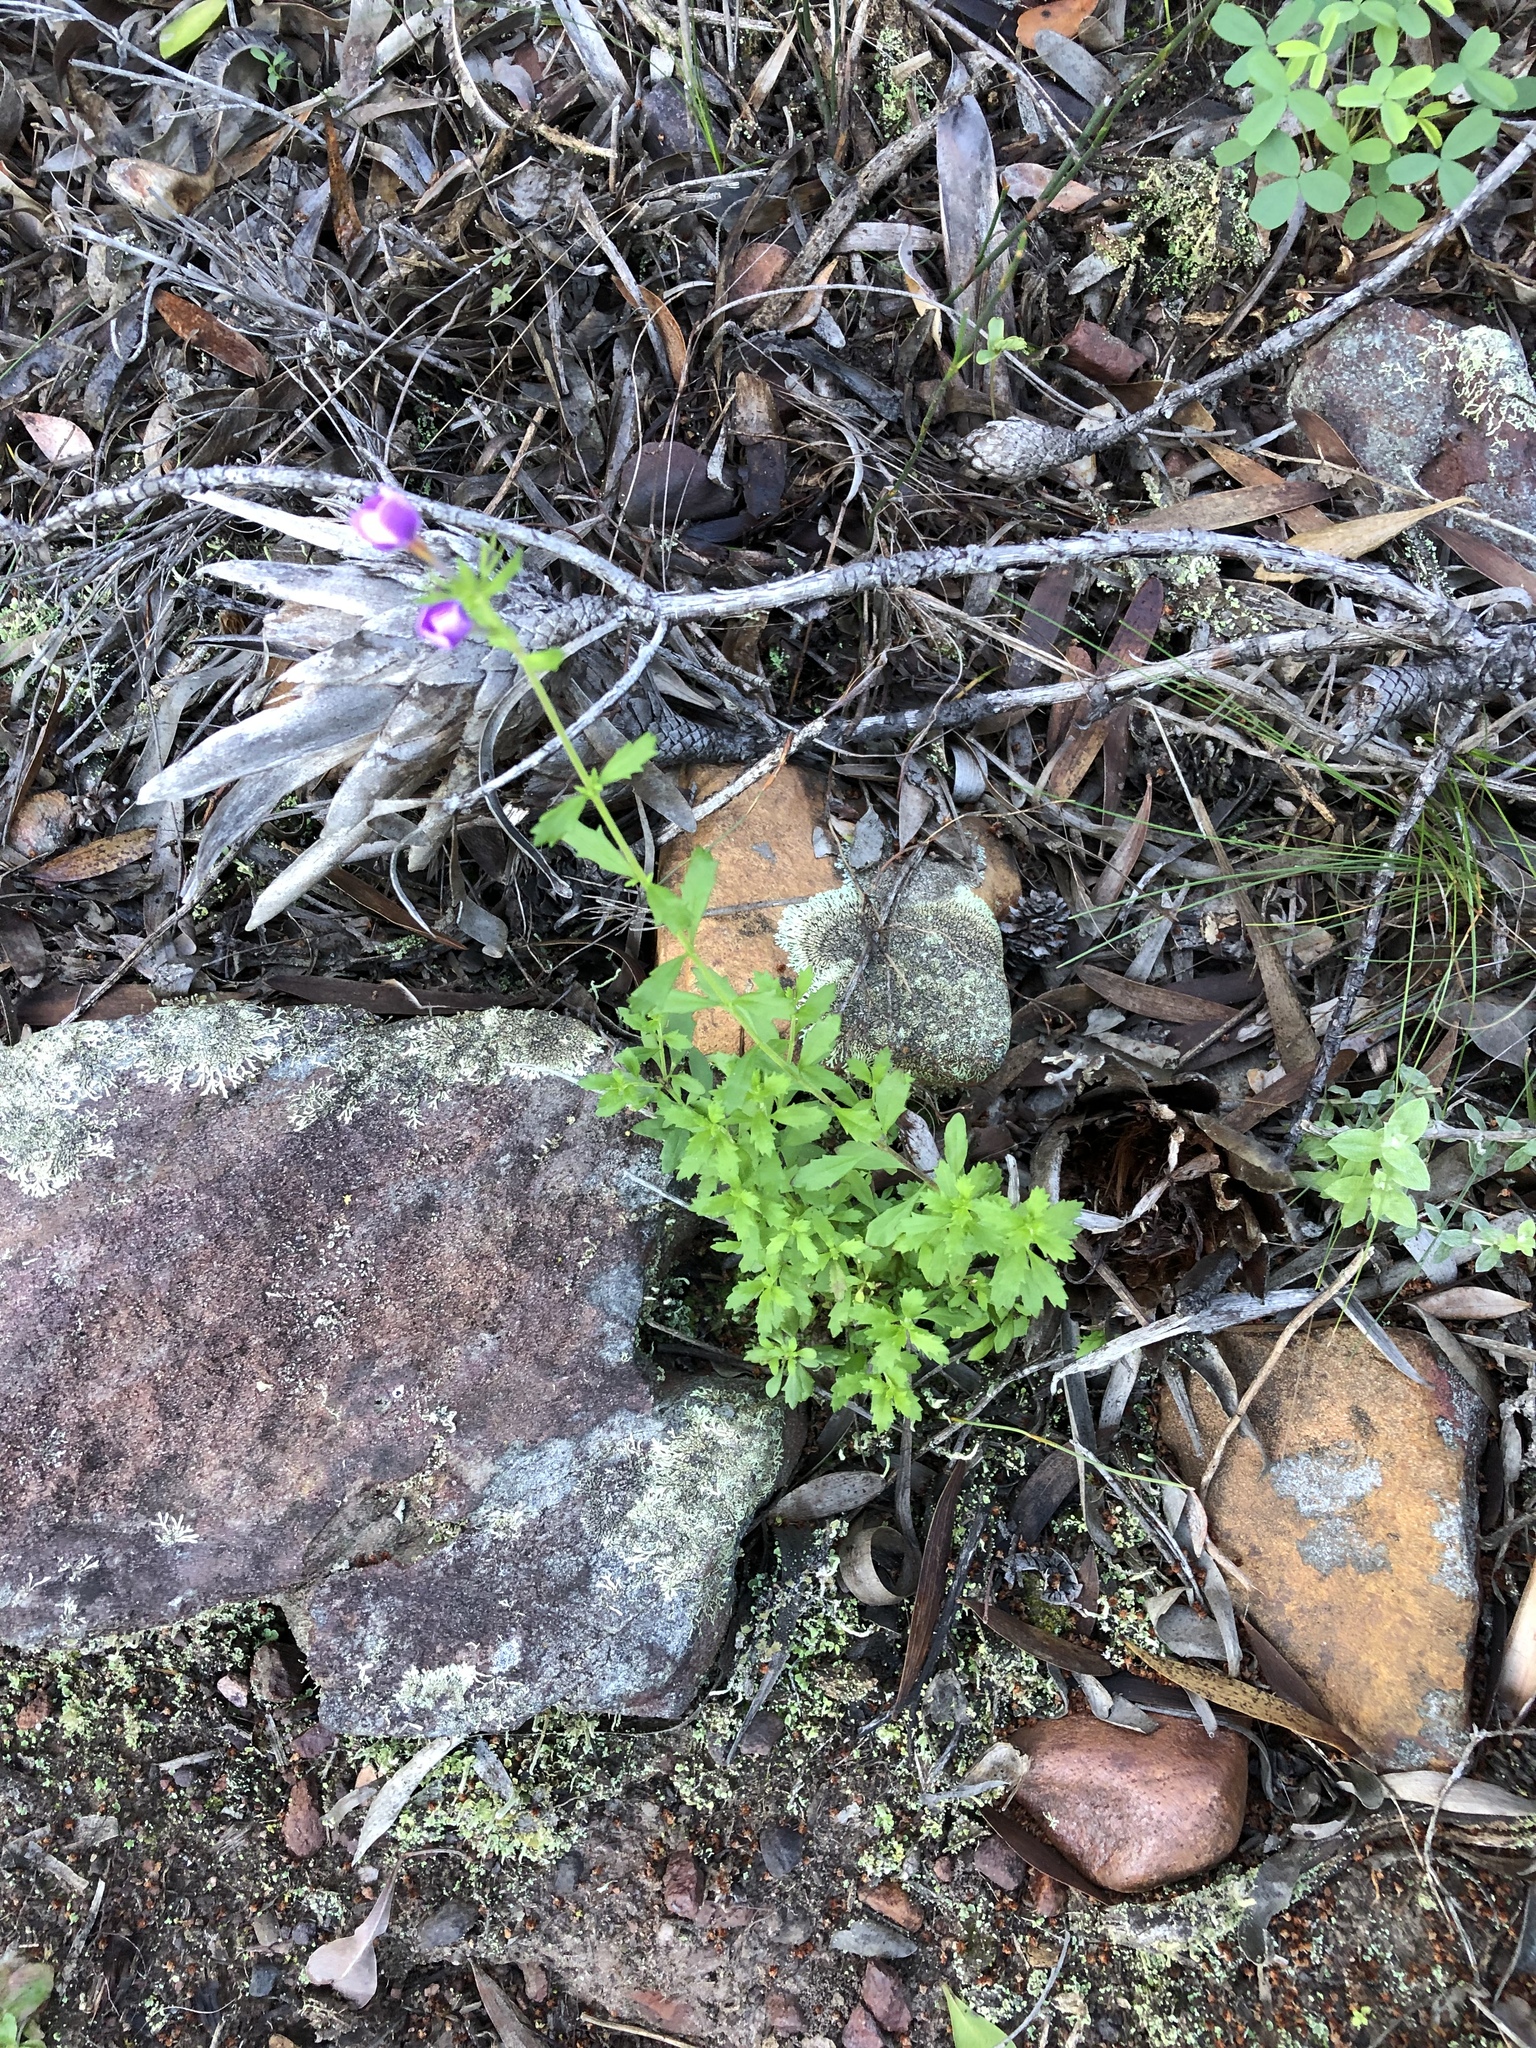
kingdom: Plantae
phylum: Tracheophyta
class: Magnoliopsida
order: Lamiales
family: Scrophulariaceae
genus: Lyperia
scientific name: Lyperia violacea
